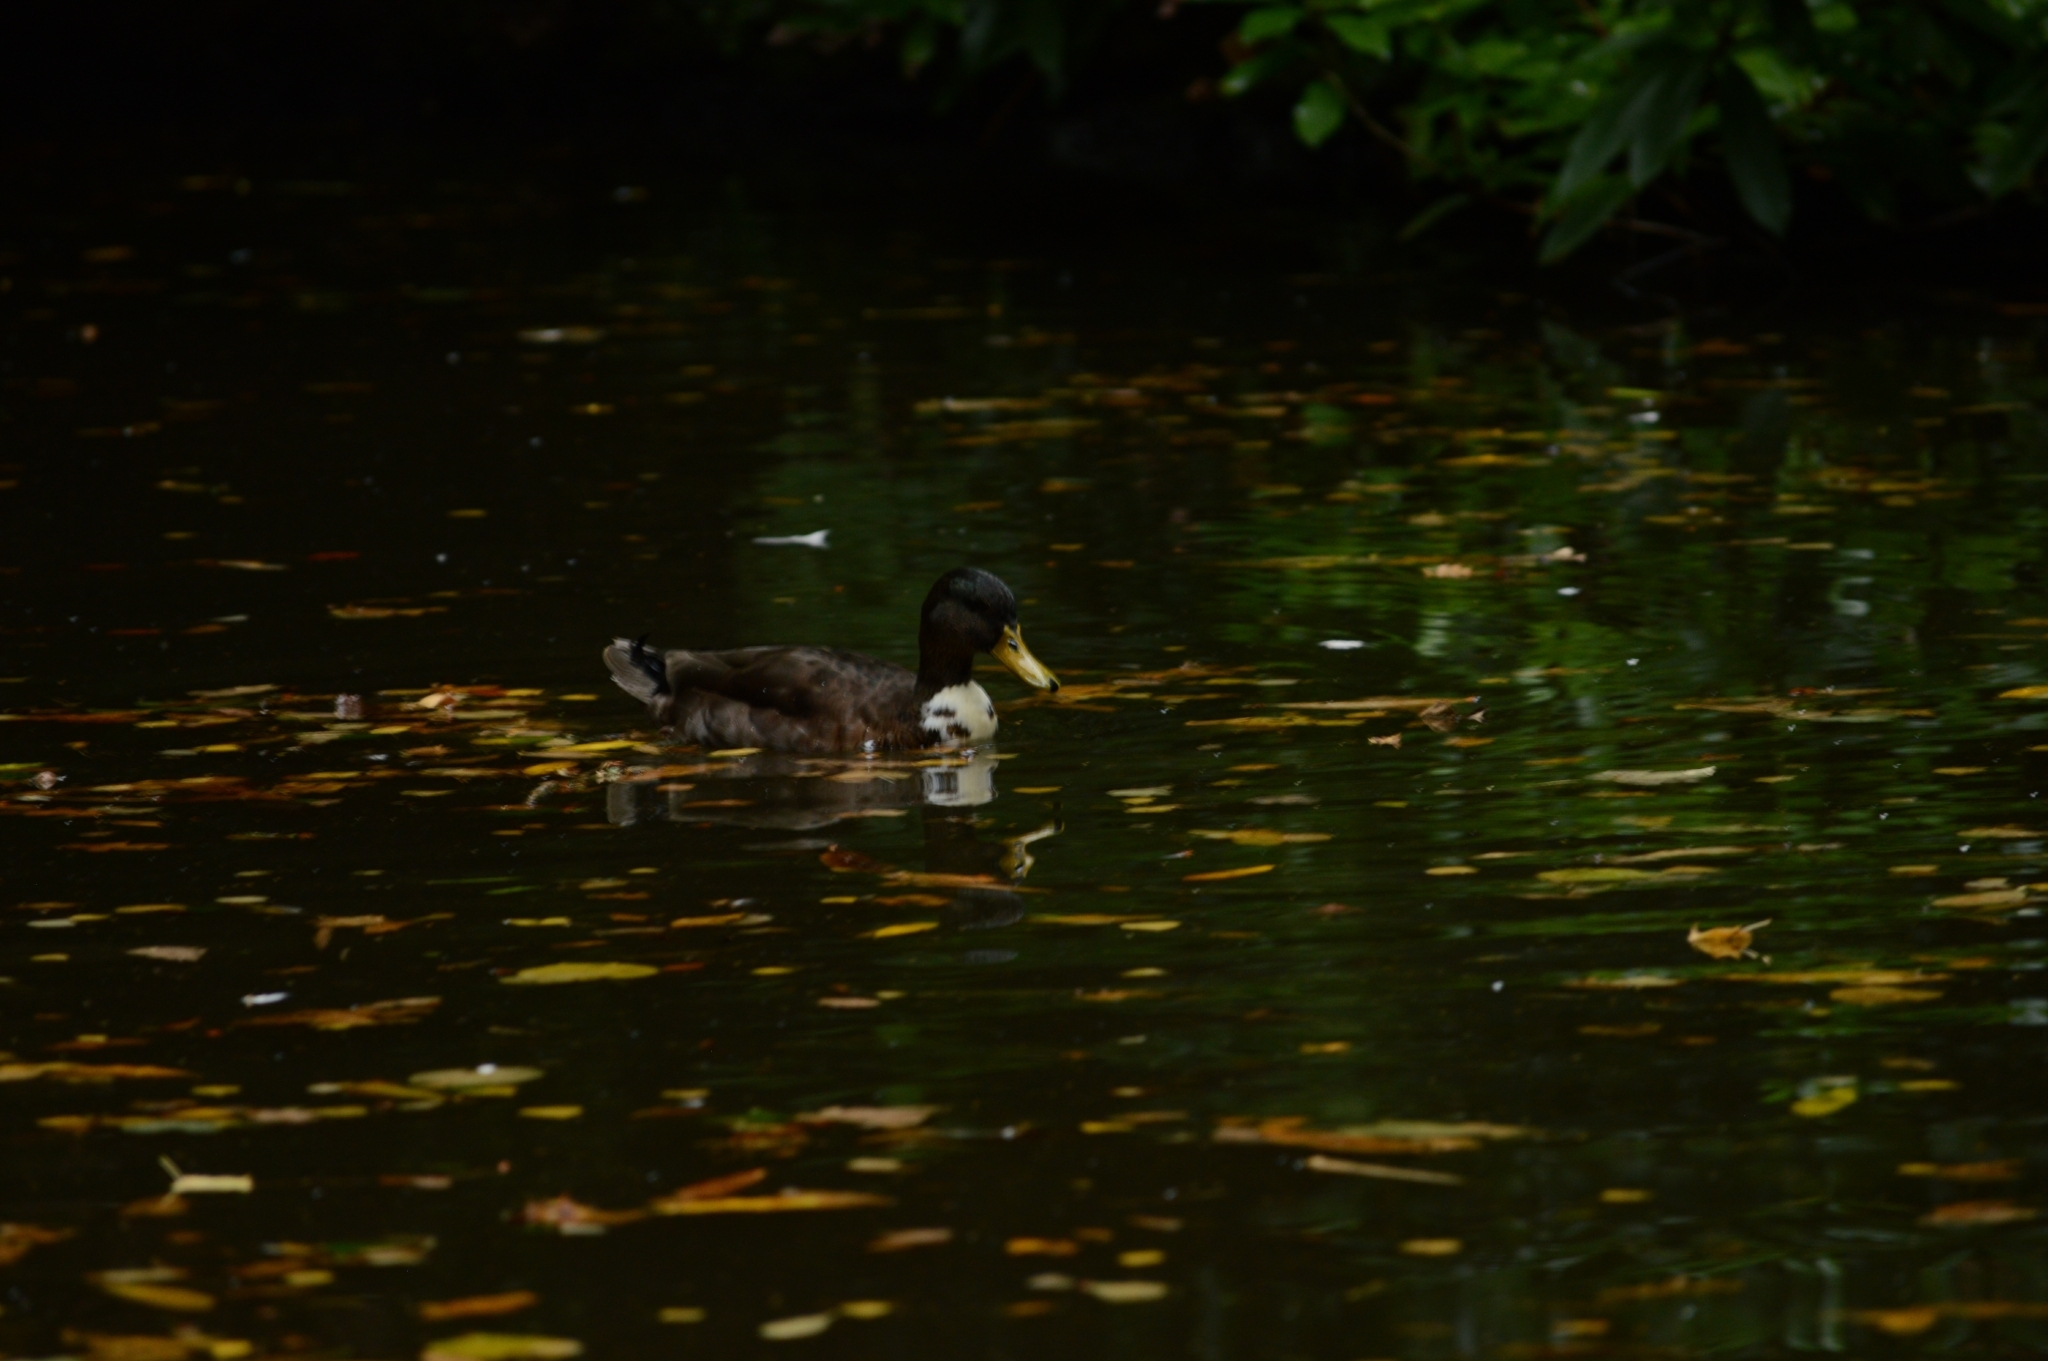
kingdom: Animalia
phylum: Chordata
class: Aves
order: Anseriformes
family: Anatidae
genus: Anas
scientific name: Anas platyrhynchos
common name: Mallard
